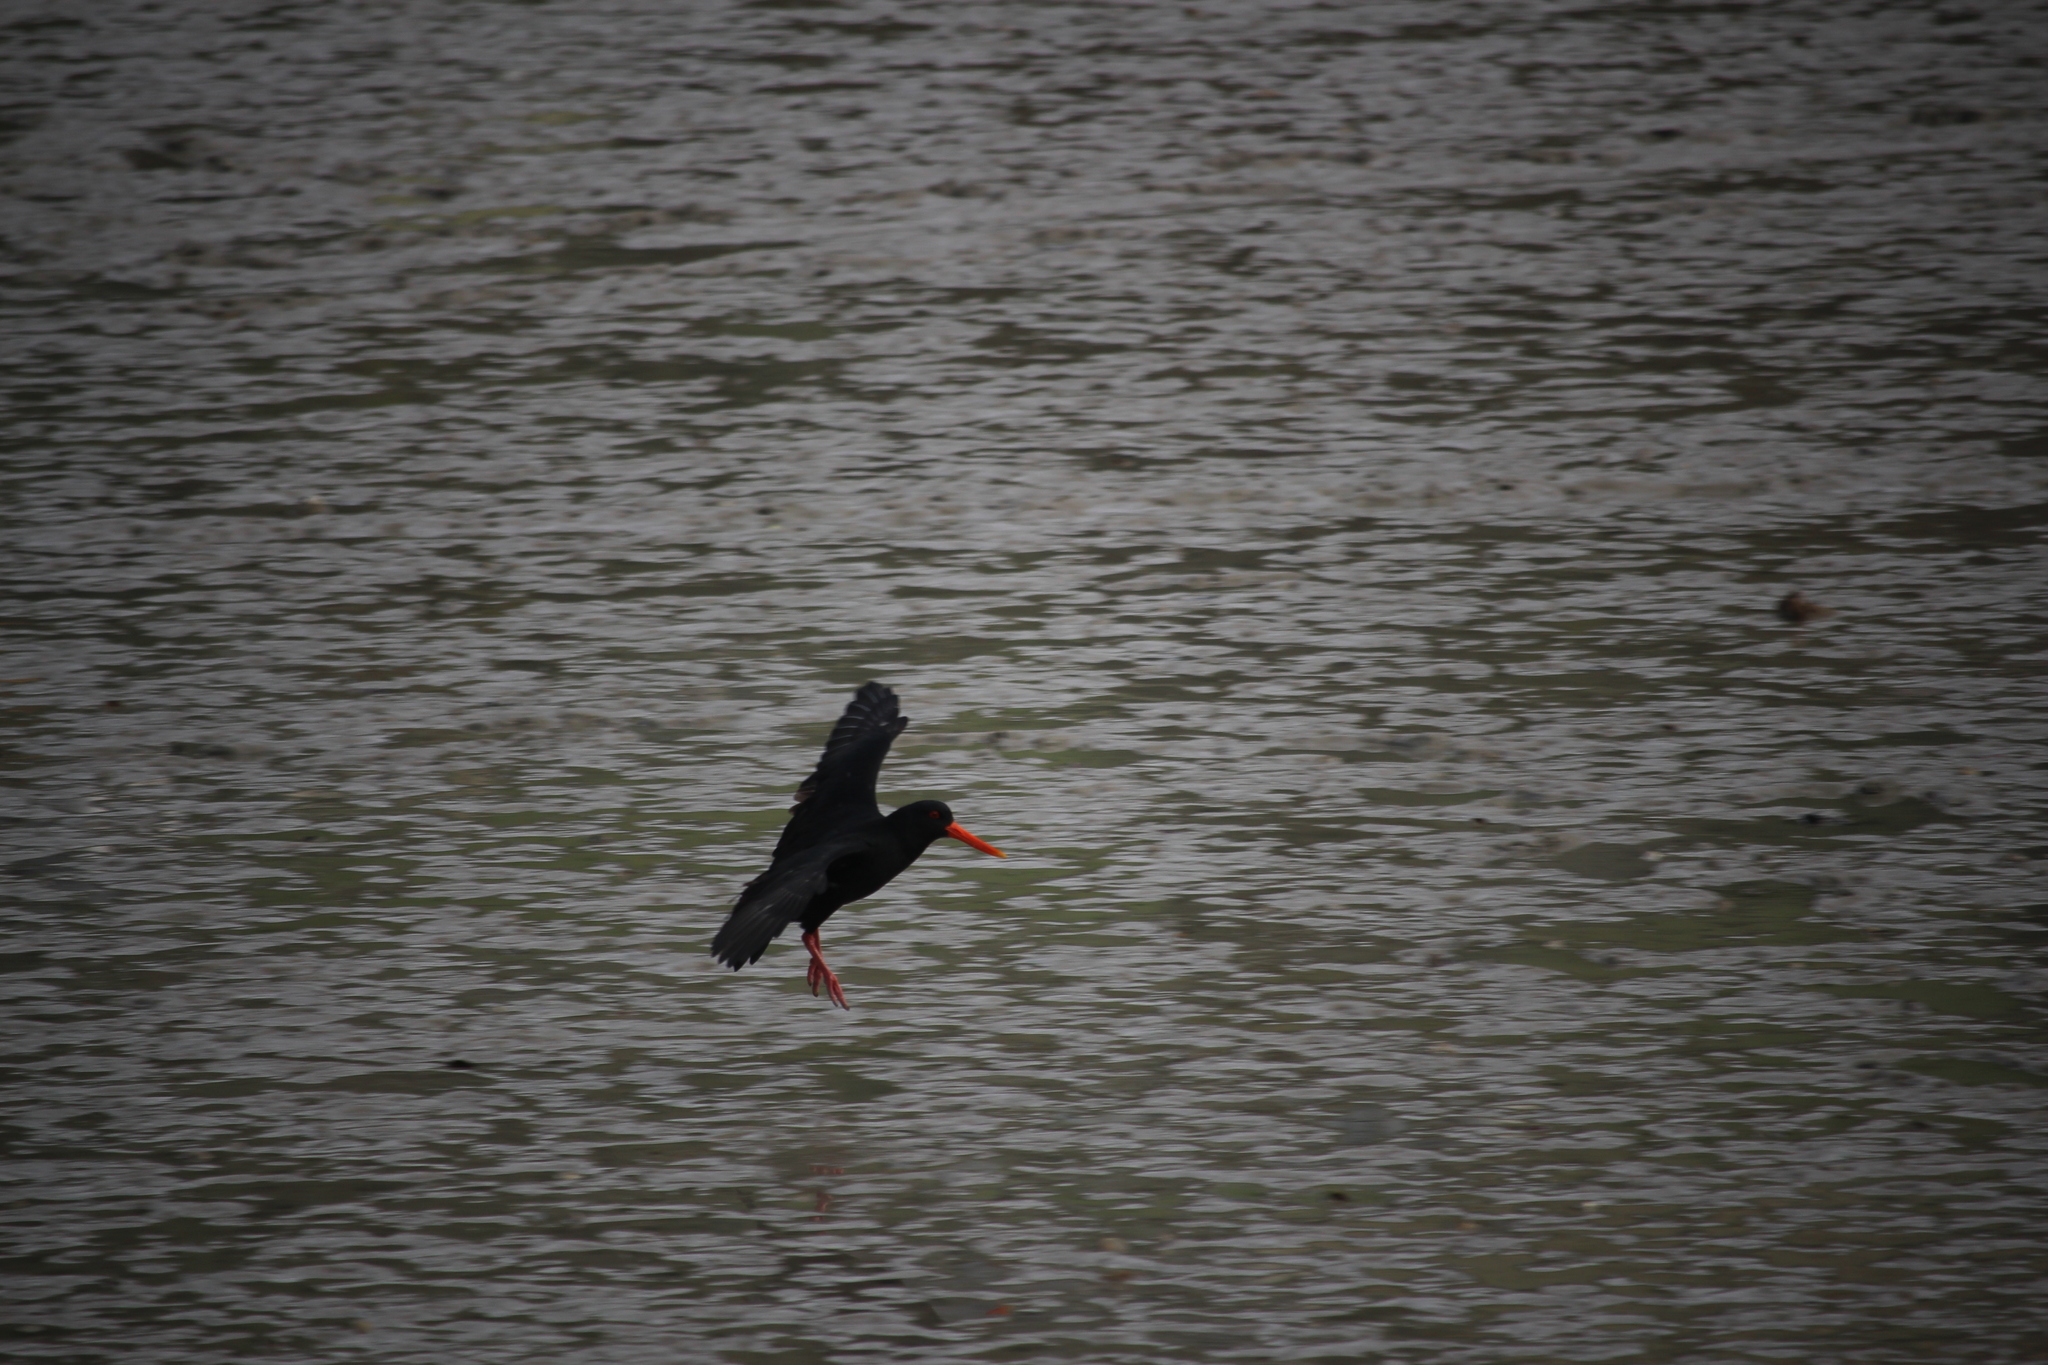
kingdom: Animalia
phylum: Chordata
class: Aves
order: Charadriiformes
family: Haematopodidae
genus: Haematopus
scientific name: Haematopus unicolor
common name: Variable oystercatcher
